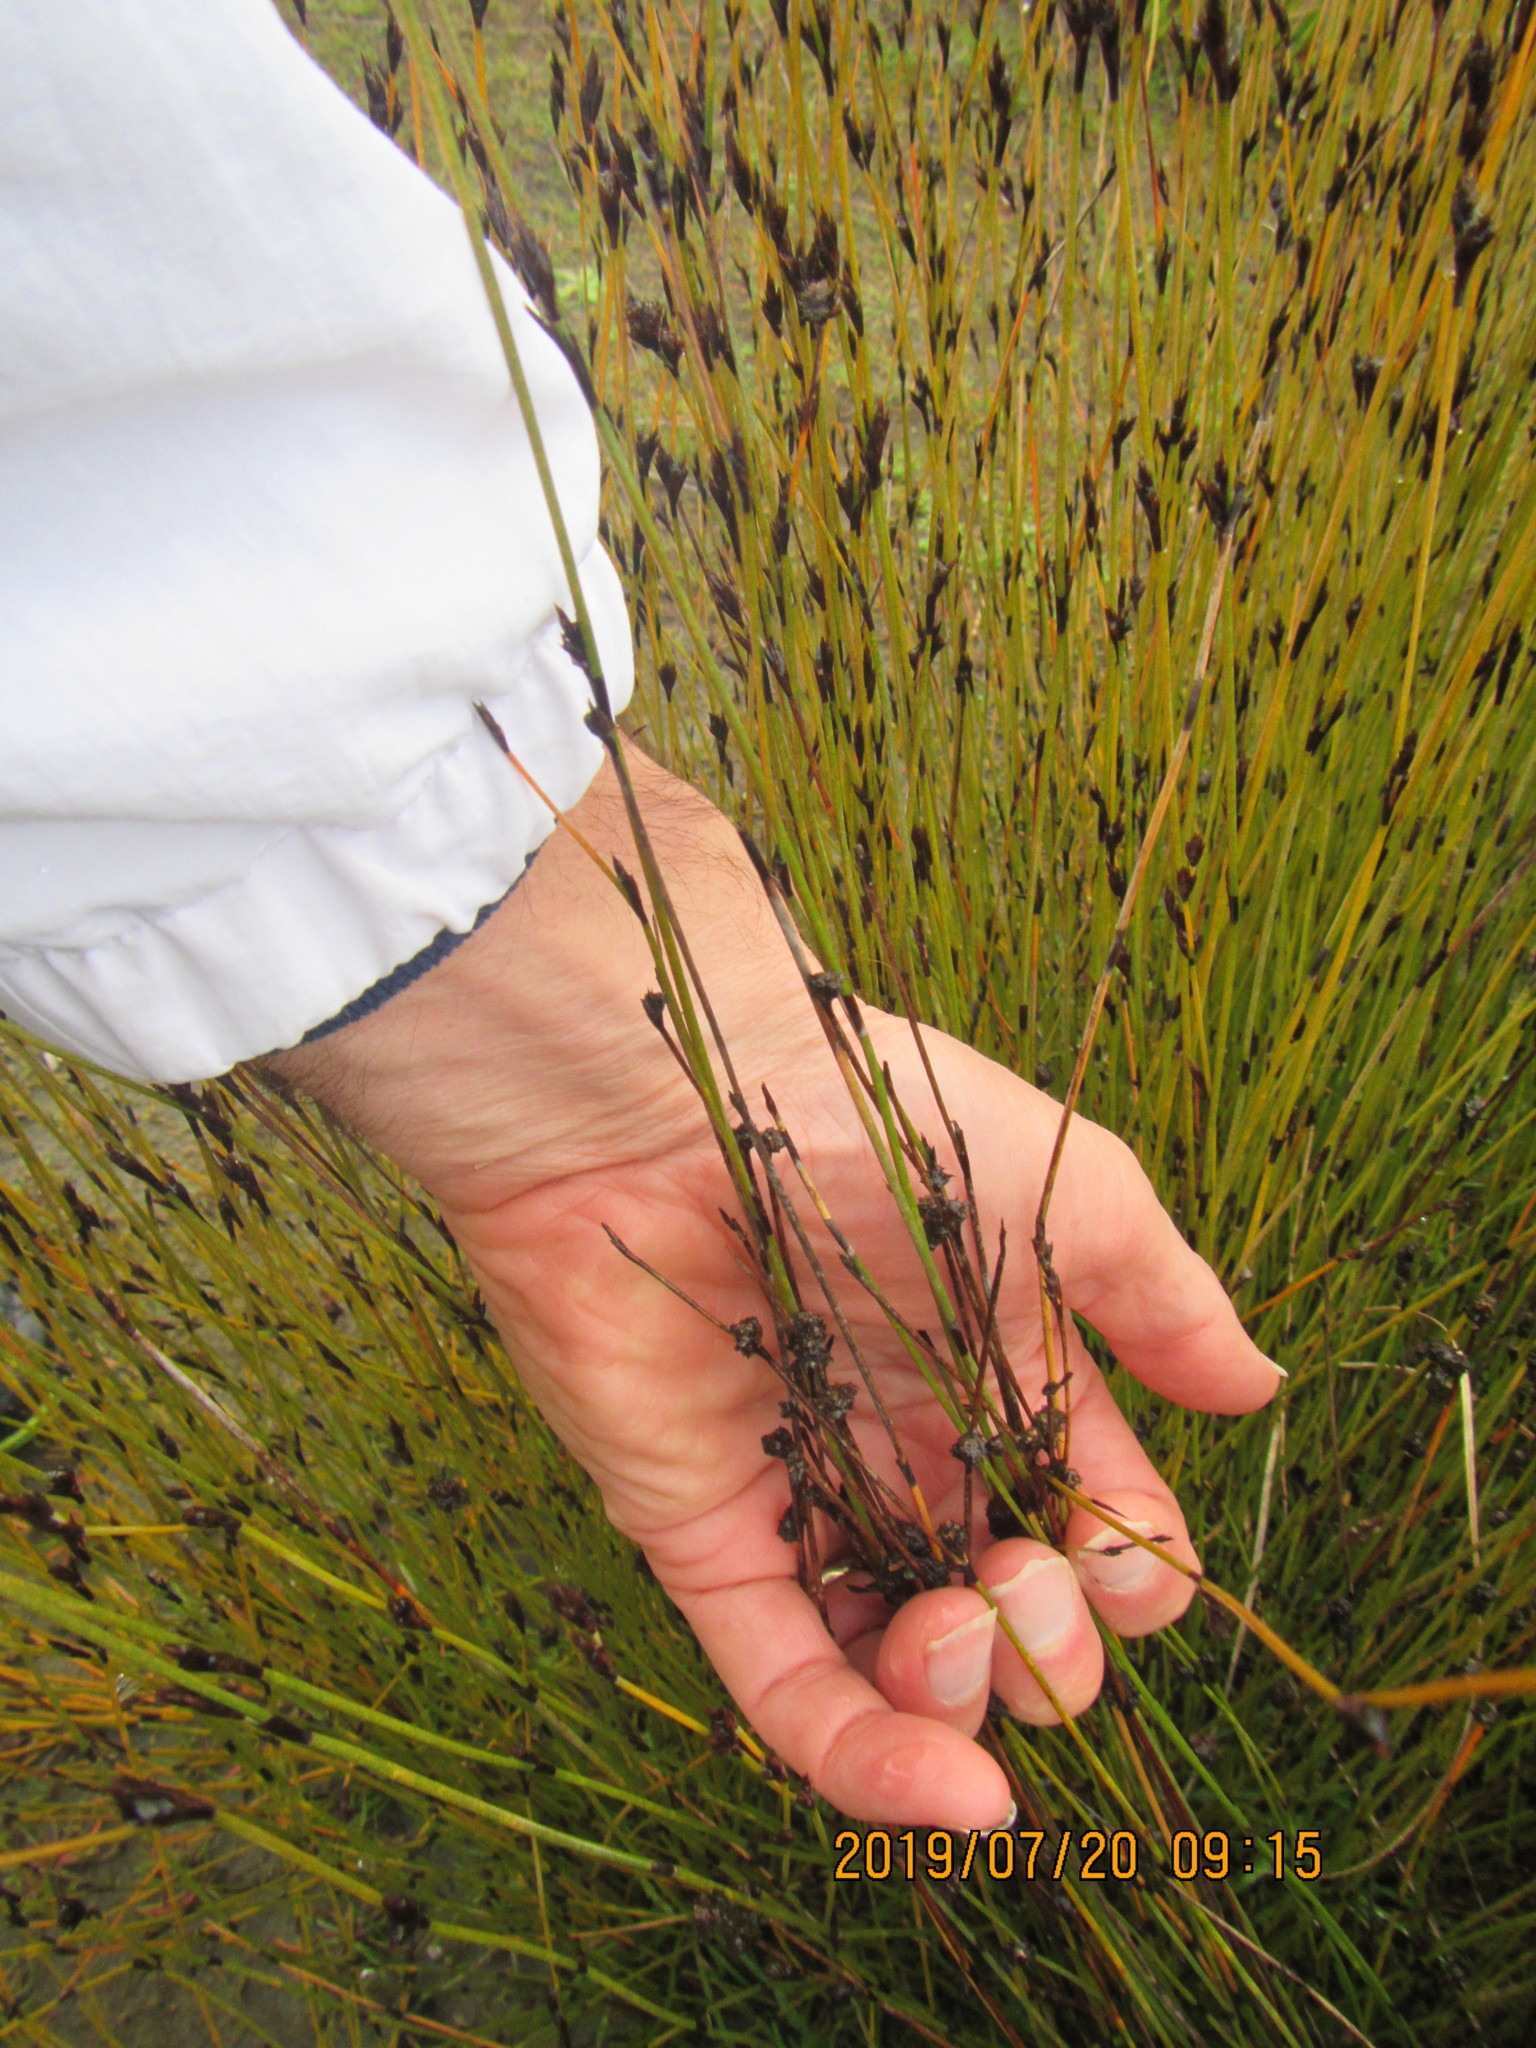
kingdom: Plantae
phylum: Tracheophyta
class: Liliopsida
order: Poales
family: Restionaceae
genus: Apodasmia
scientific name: Apodasmia similis
